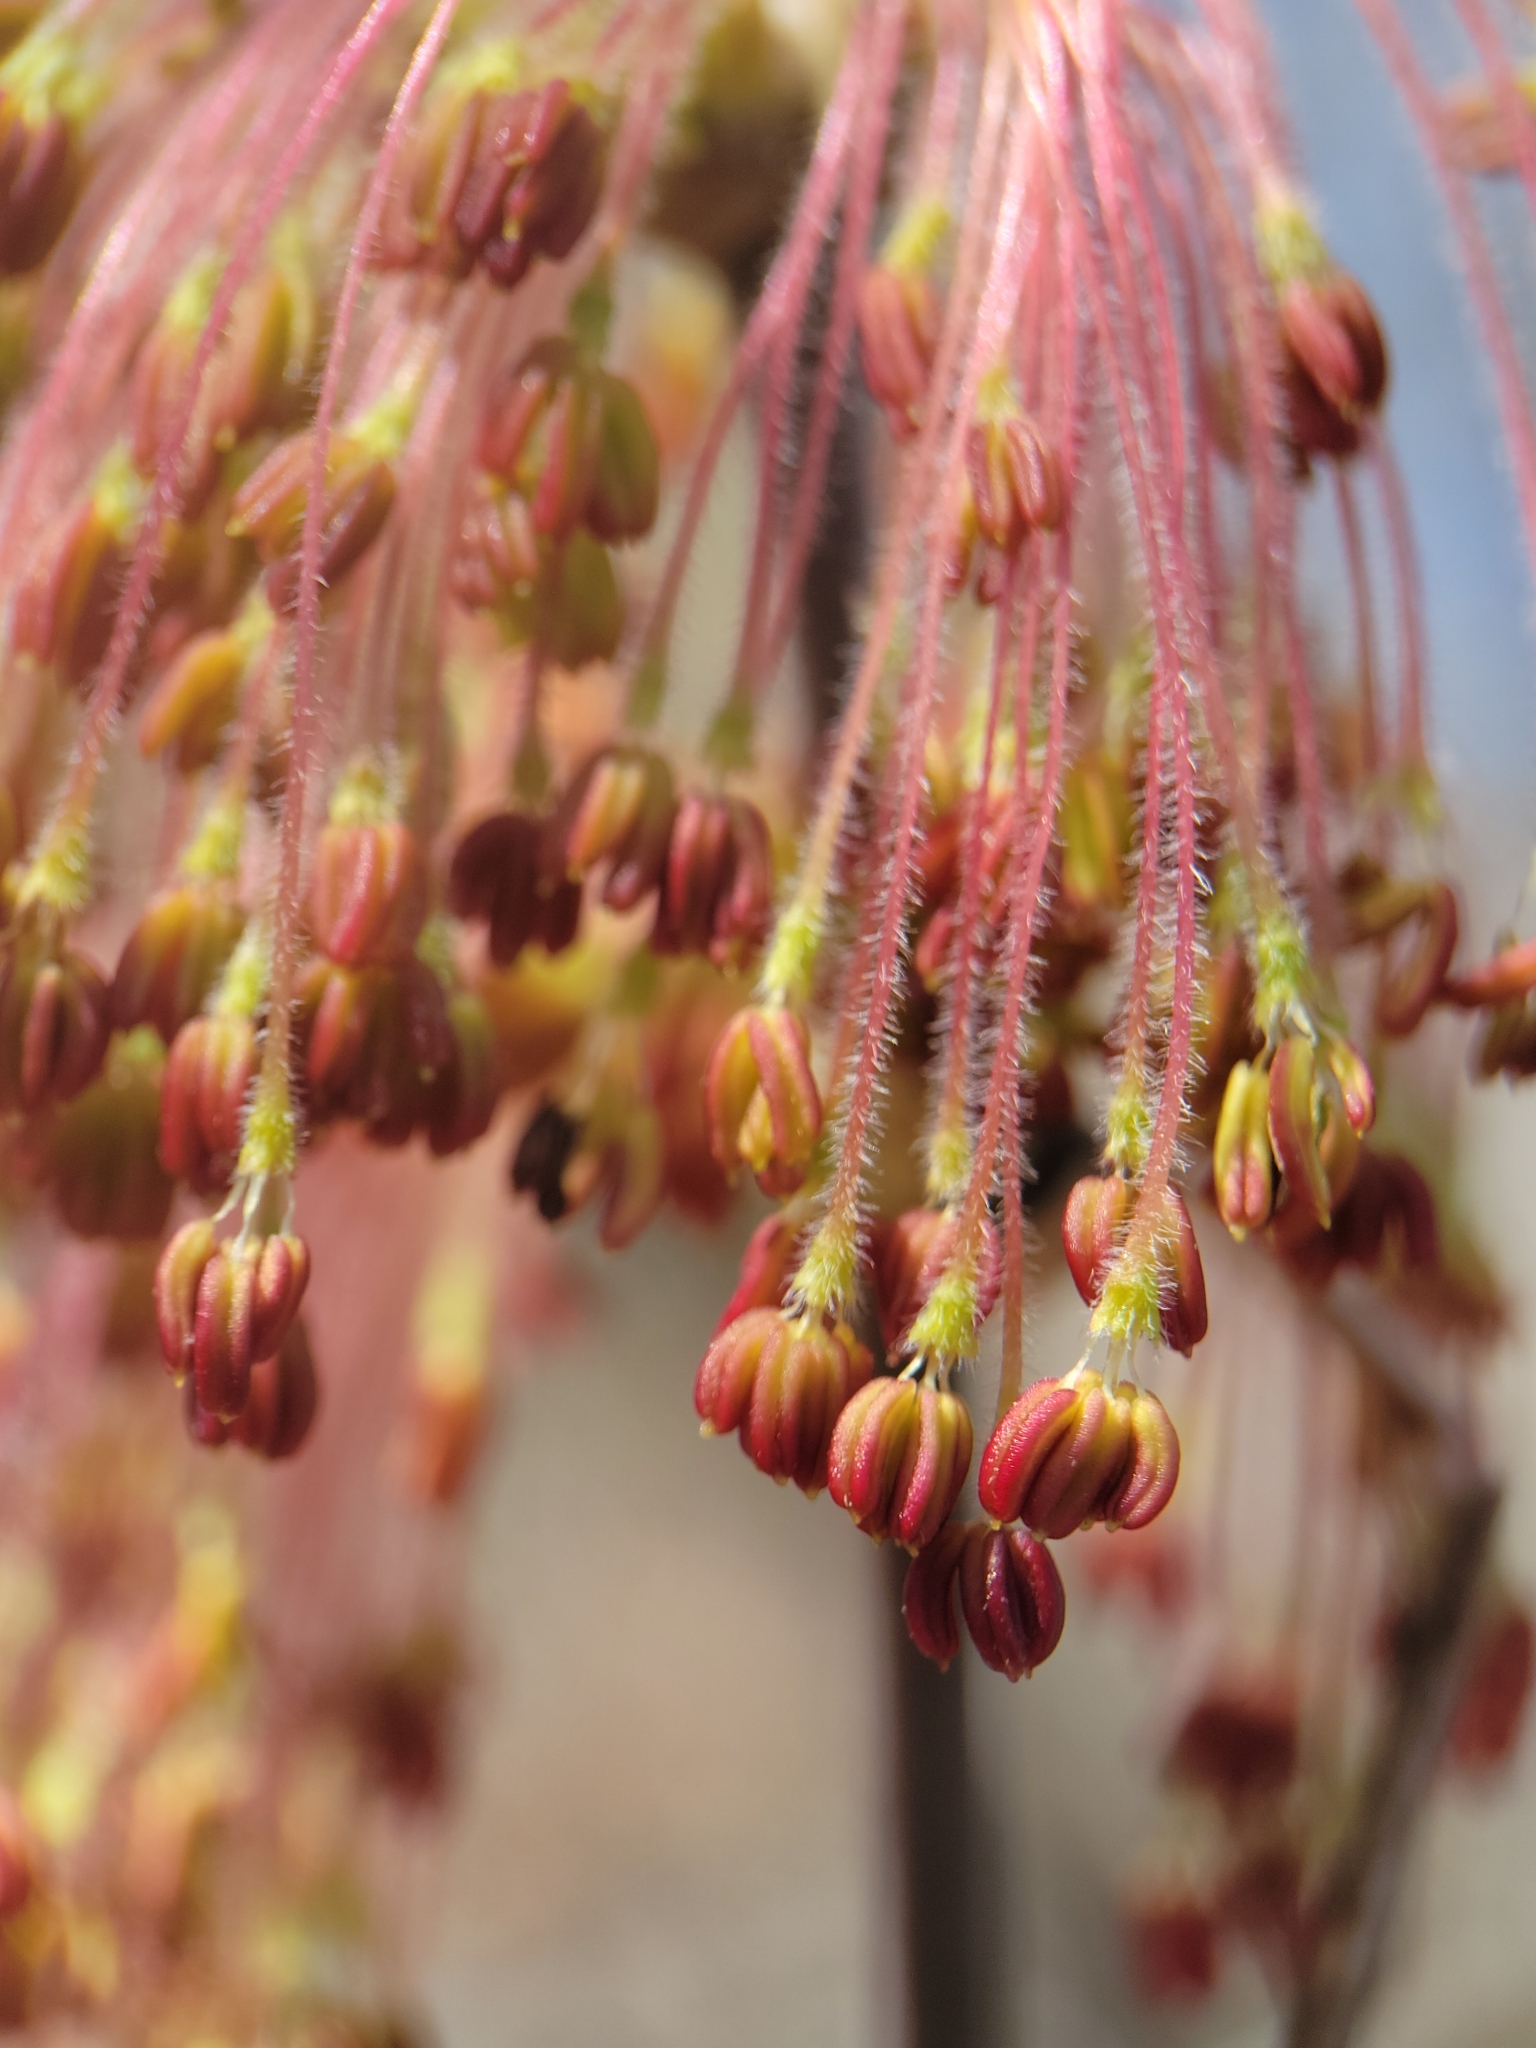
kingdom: Plantae
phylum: Tracheophyta
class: Magnoliopsida
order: Sapindales
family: Sapindaceae
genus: Acer
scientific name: Acer negundo
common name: Ashleaf maple
